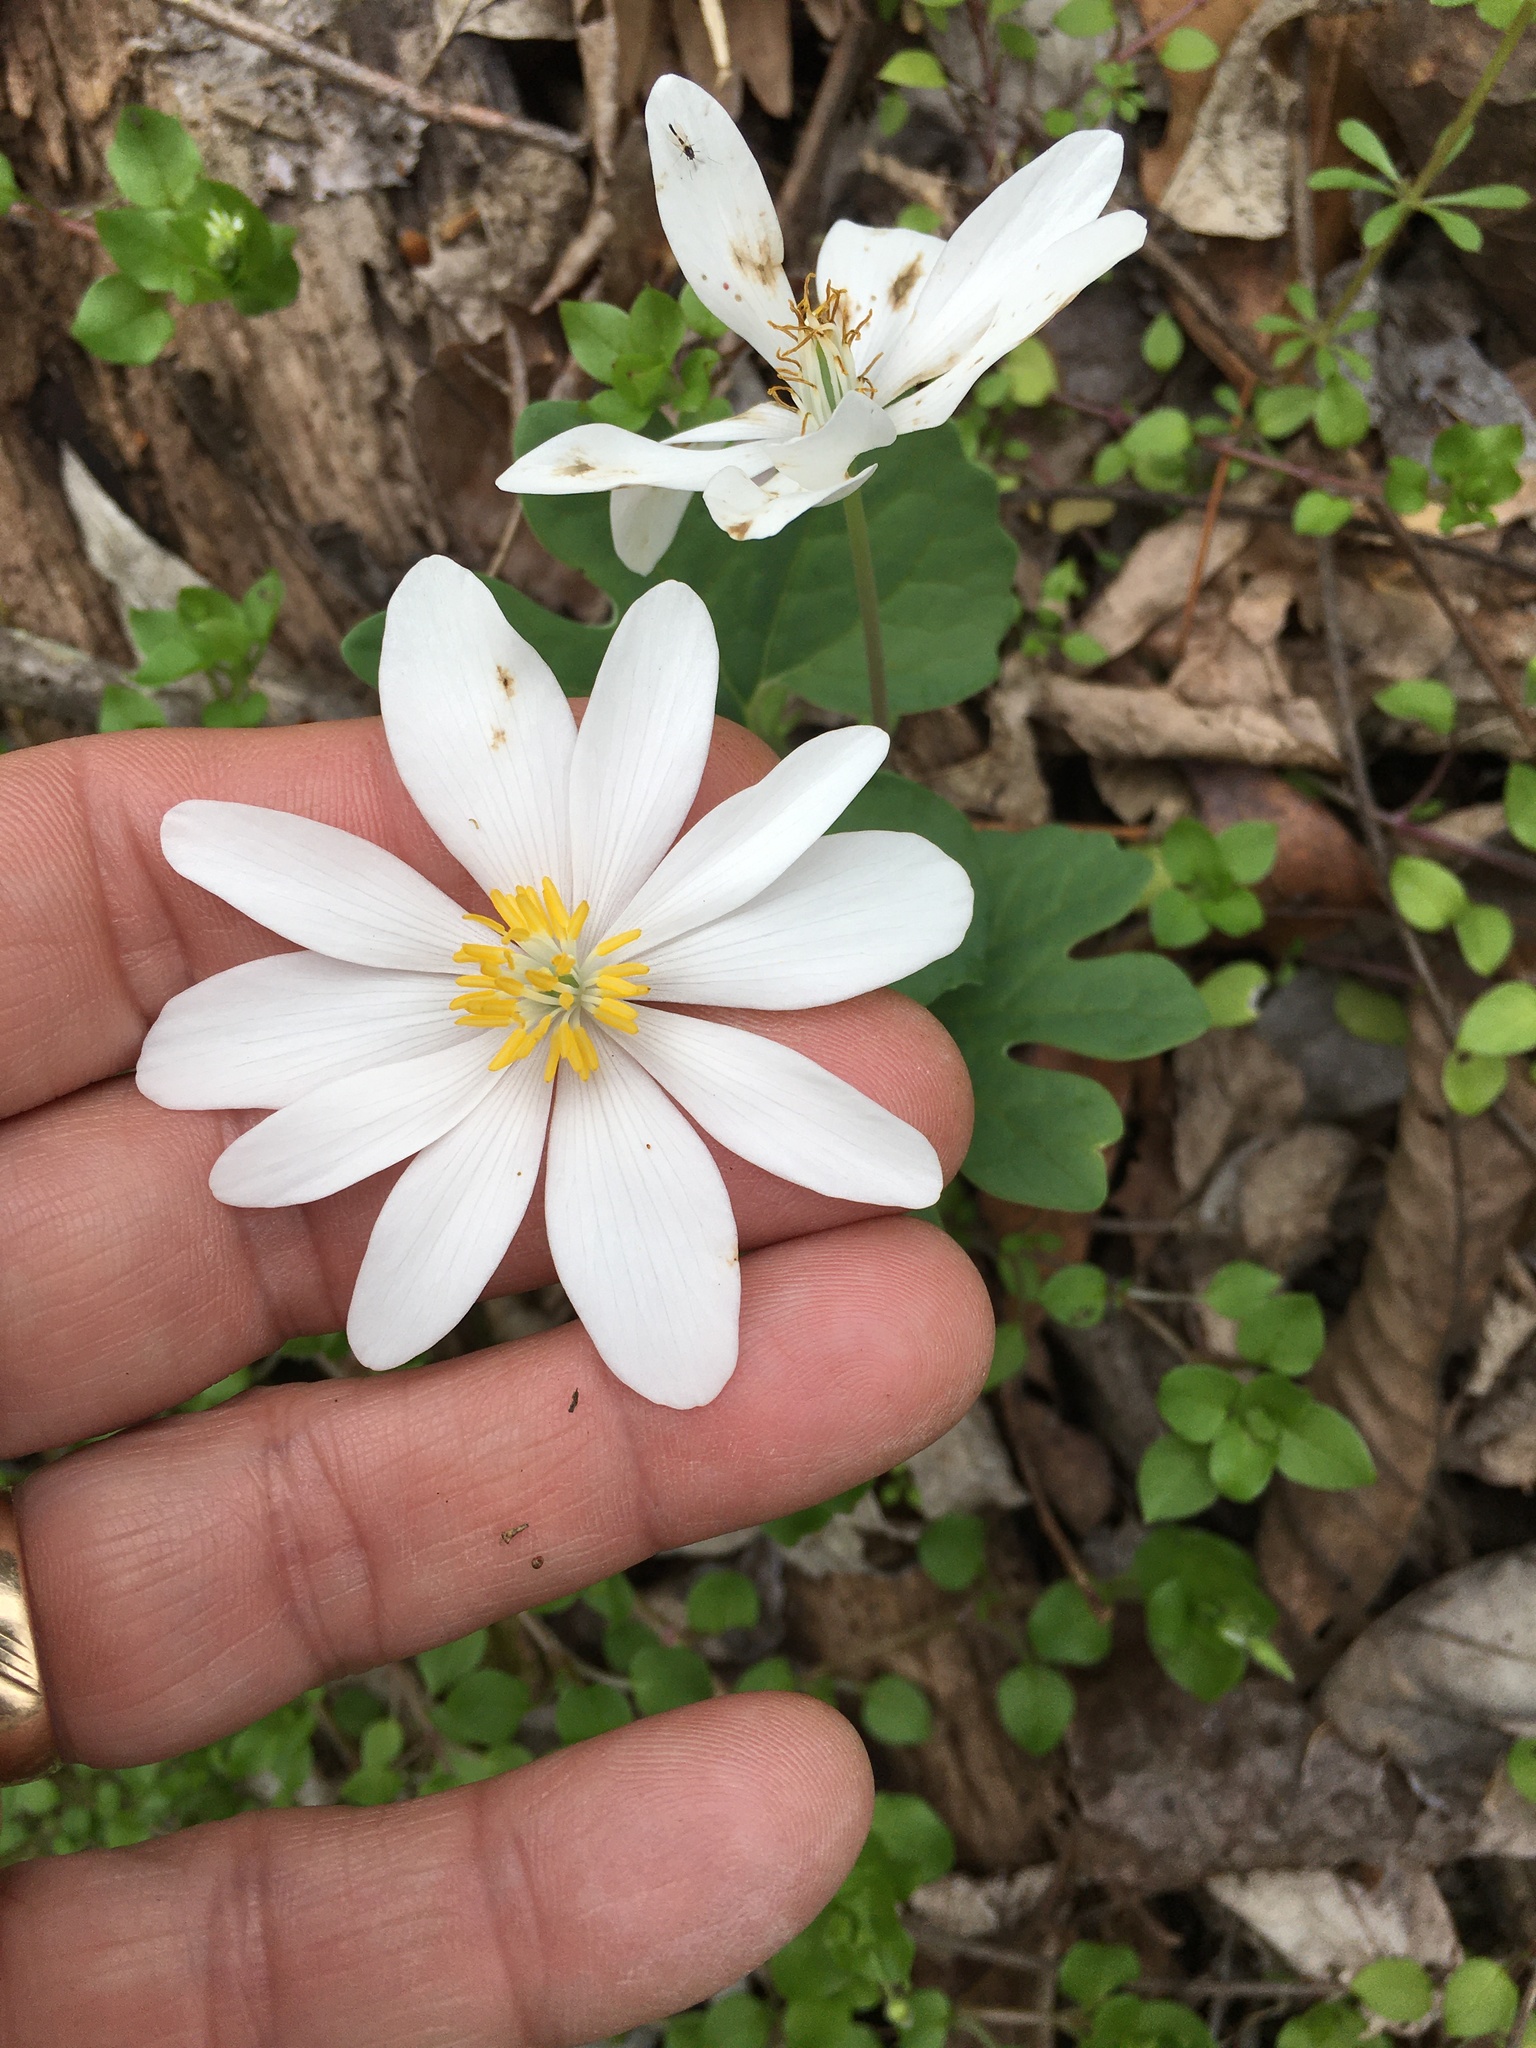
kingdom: Plantae
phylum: Tracheophyta
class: Magnoliopsida
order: Ranunculales
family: Papaveraceae
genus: Sanguinaria
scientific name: Sanguinaria canadensis
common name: Bloodroot
